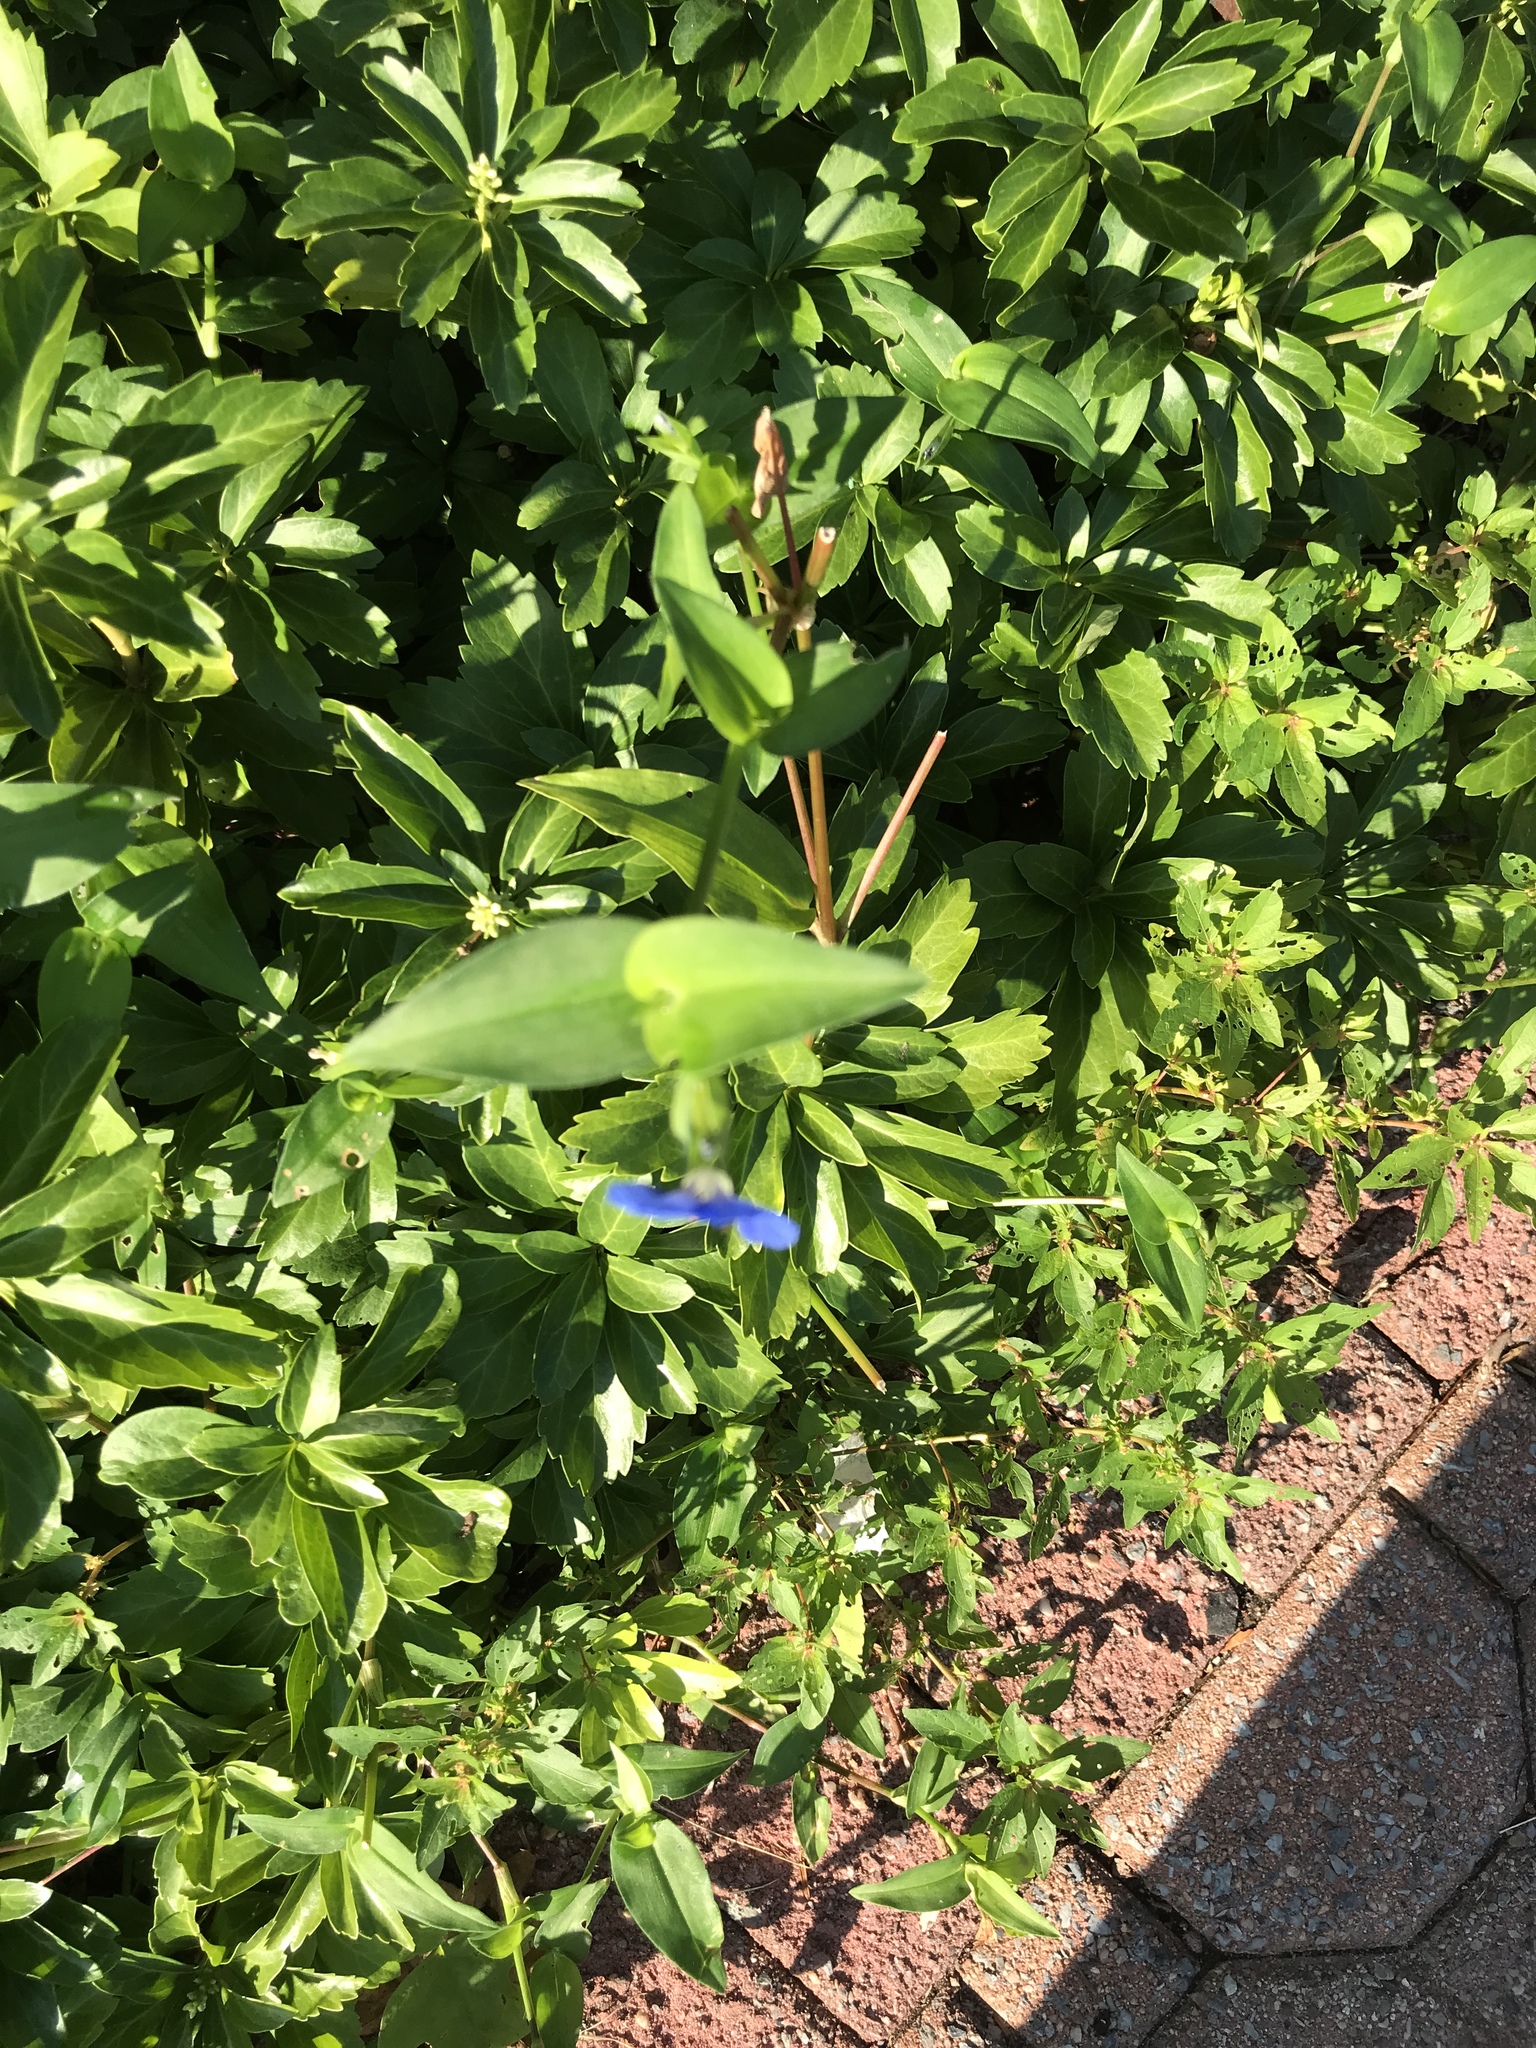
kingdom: Plantae
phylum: Tracheophyta
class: Liliopsida
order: Commelinales
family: Commelinaceae
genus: Commelina
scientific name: Commelina communis
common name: Asiatic dayflower
